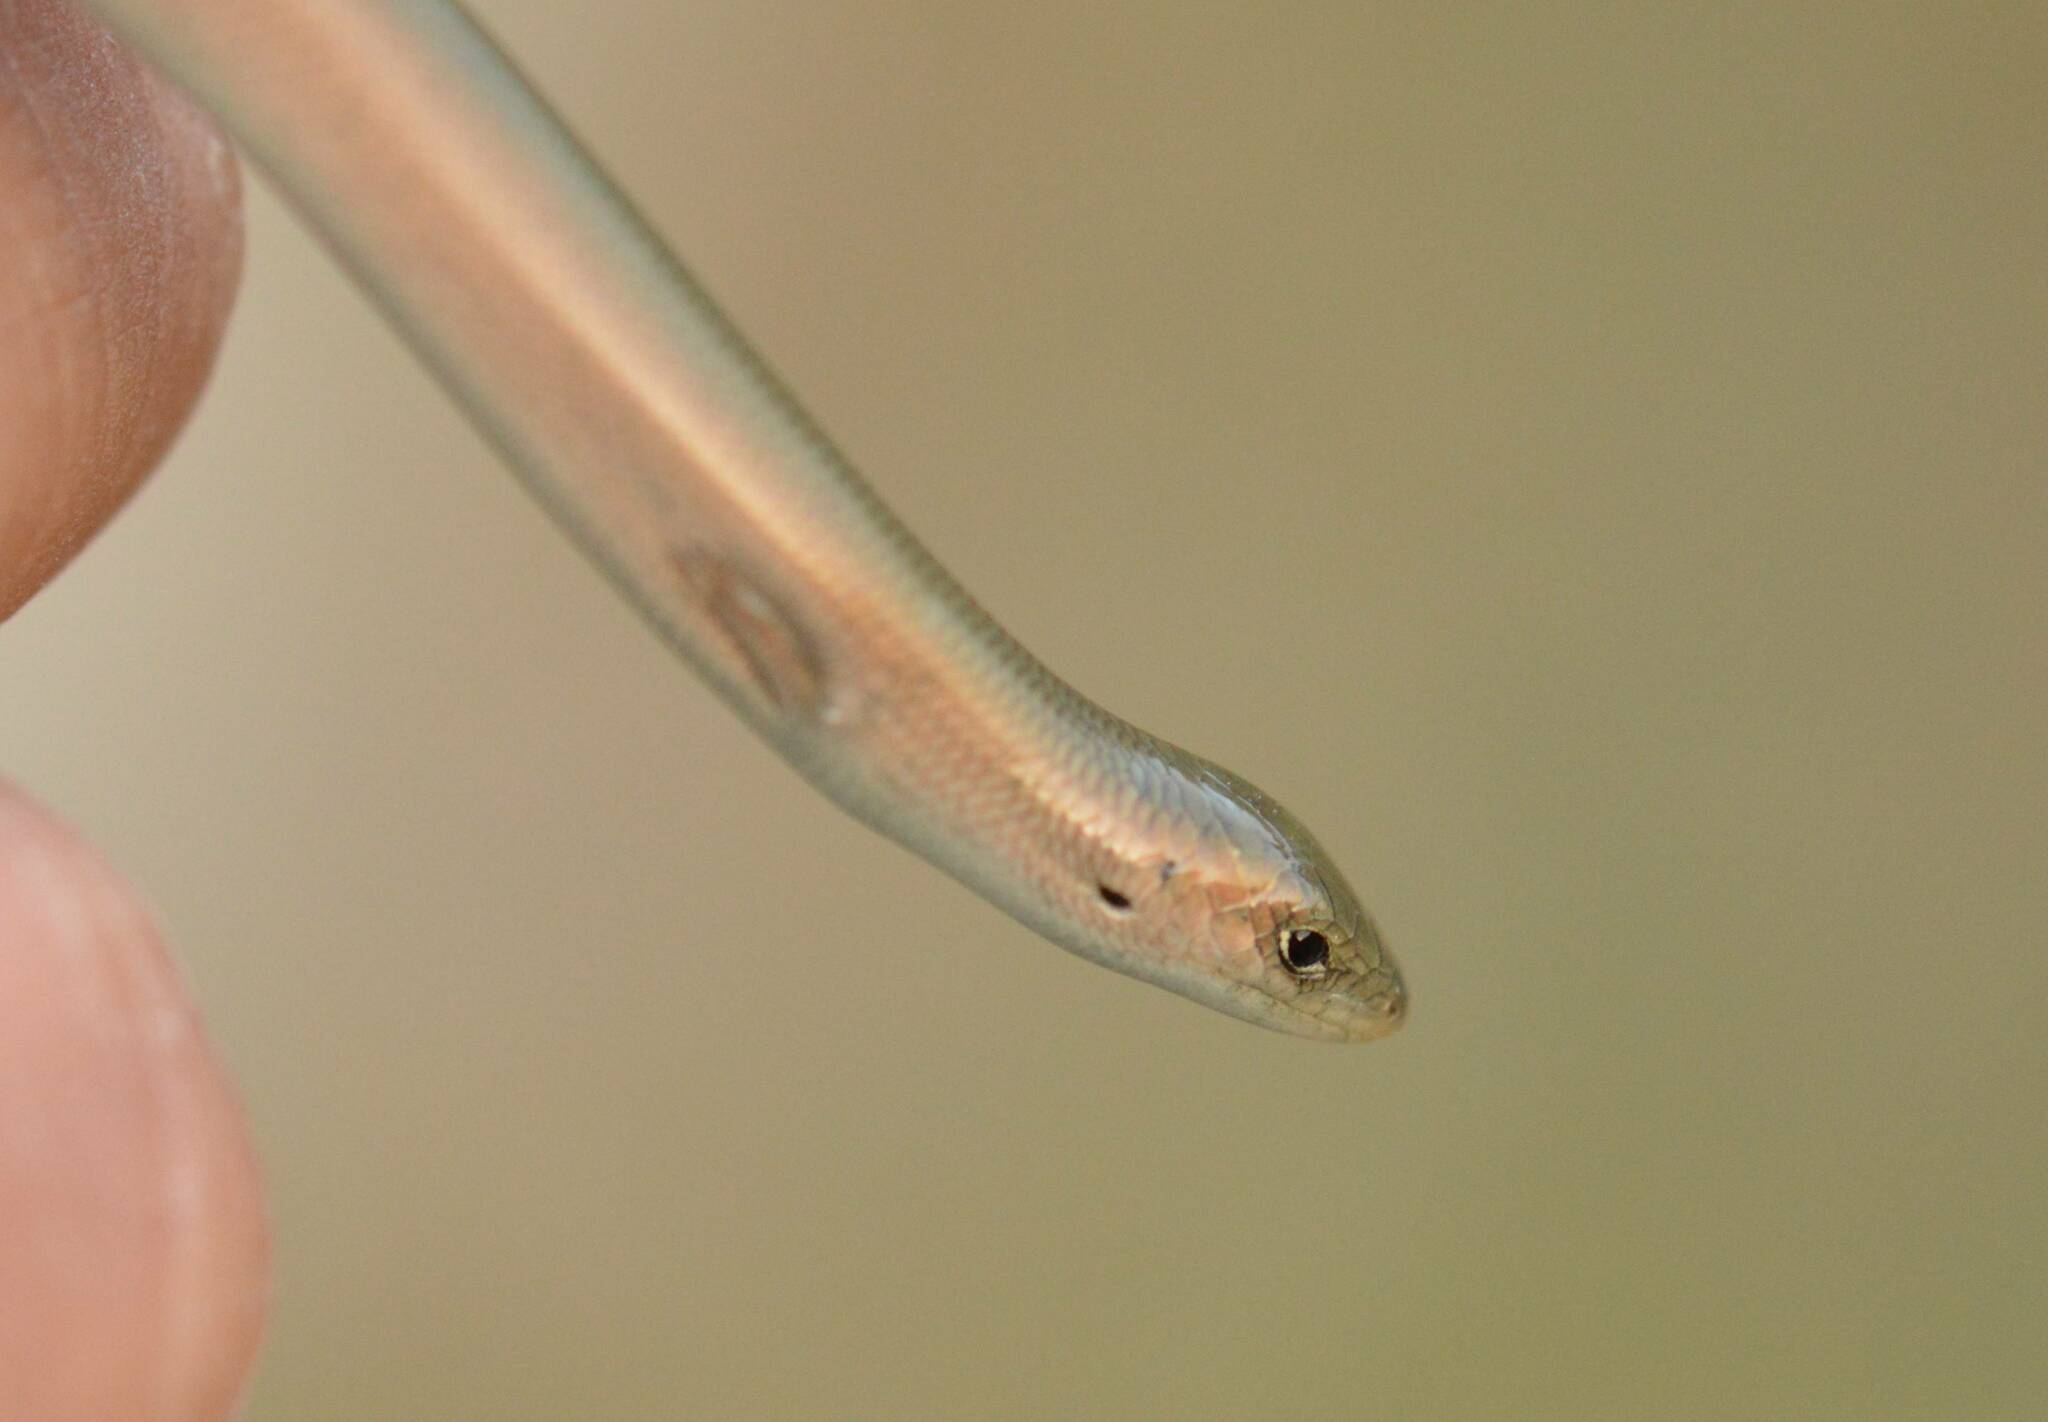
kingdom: Animalia
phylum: Chordata
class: Squamata
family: Scincidae
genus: Chalcides
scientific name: Chalcides mertensi
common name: Algerian three-toed skink
